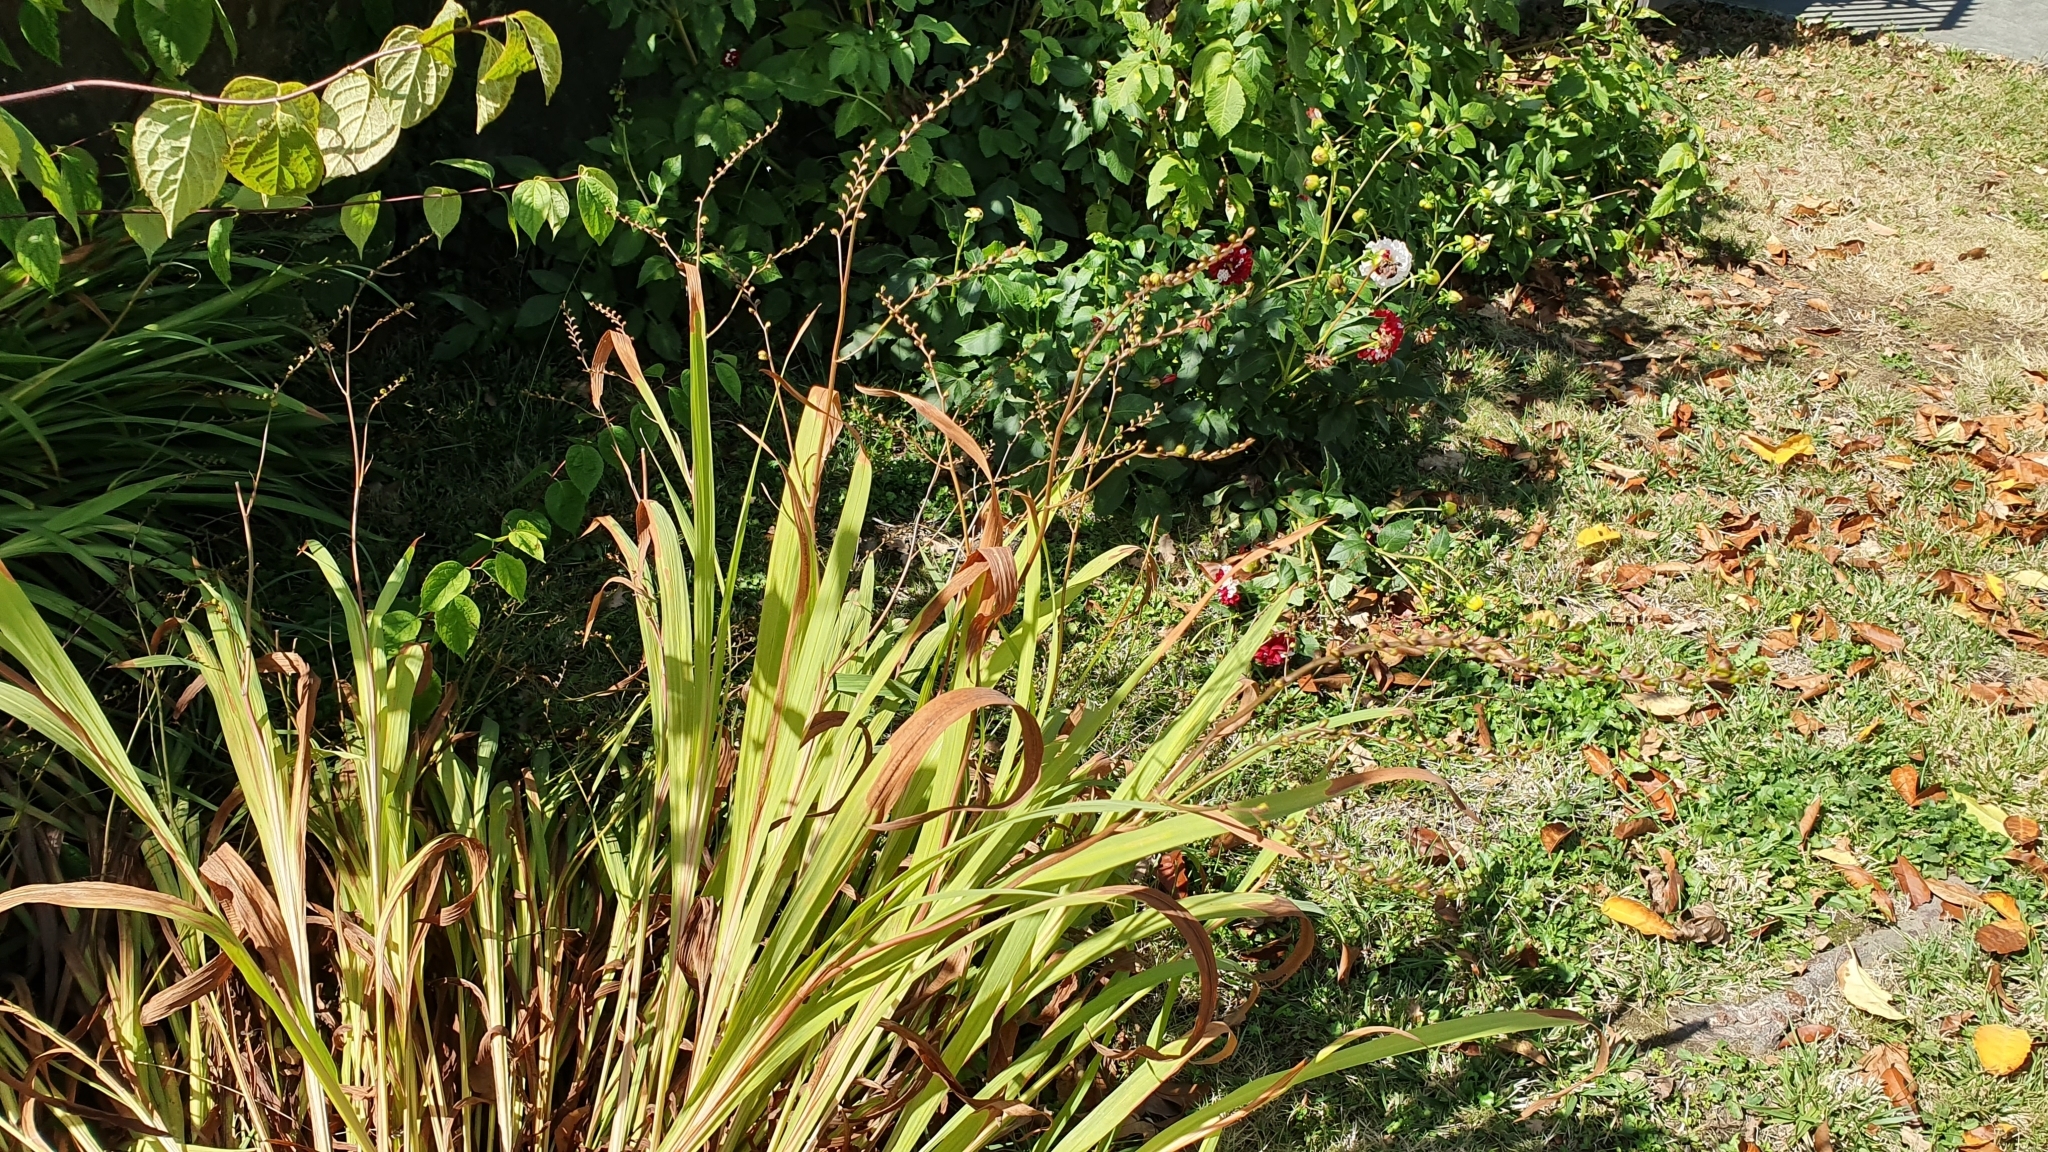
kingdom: Plantae
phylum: Tracheophyta
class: Liliopsida
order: Asparagales
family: Iridaceae
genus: Crocosmia
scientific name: Crocosmia crocosmiiflora
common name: Montbretia
